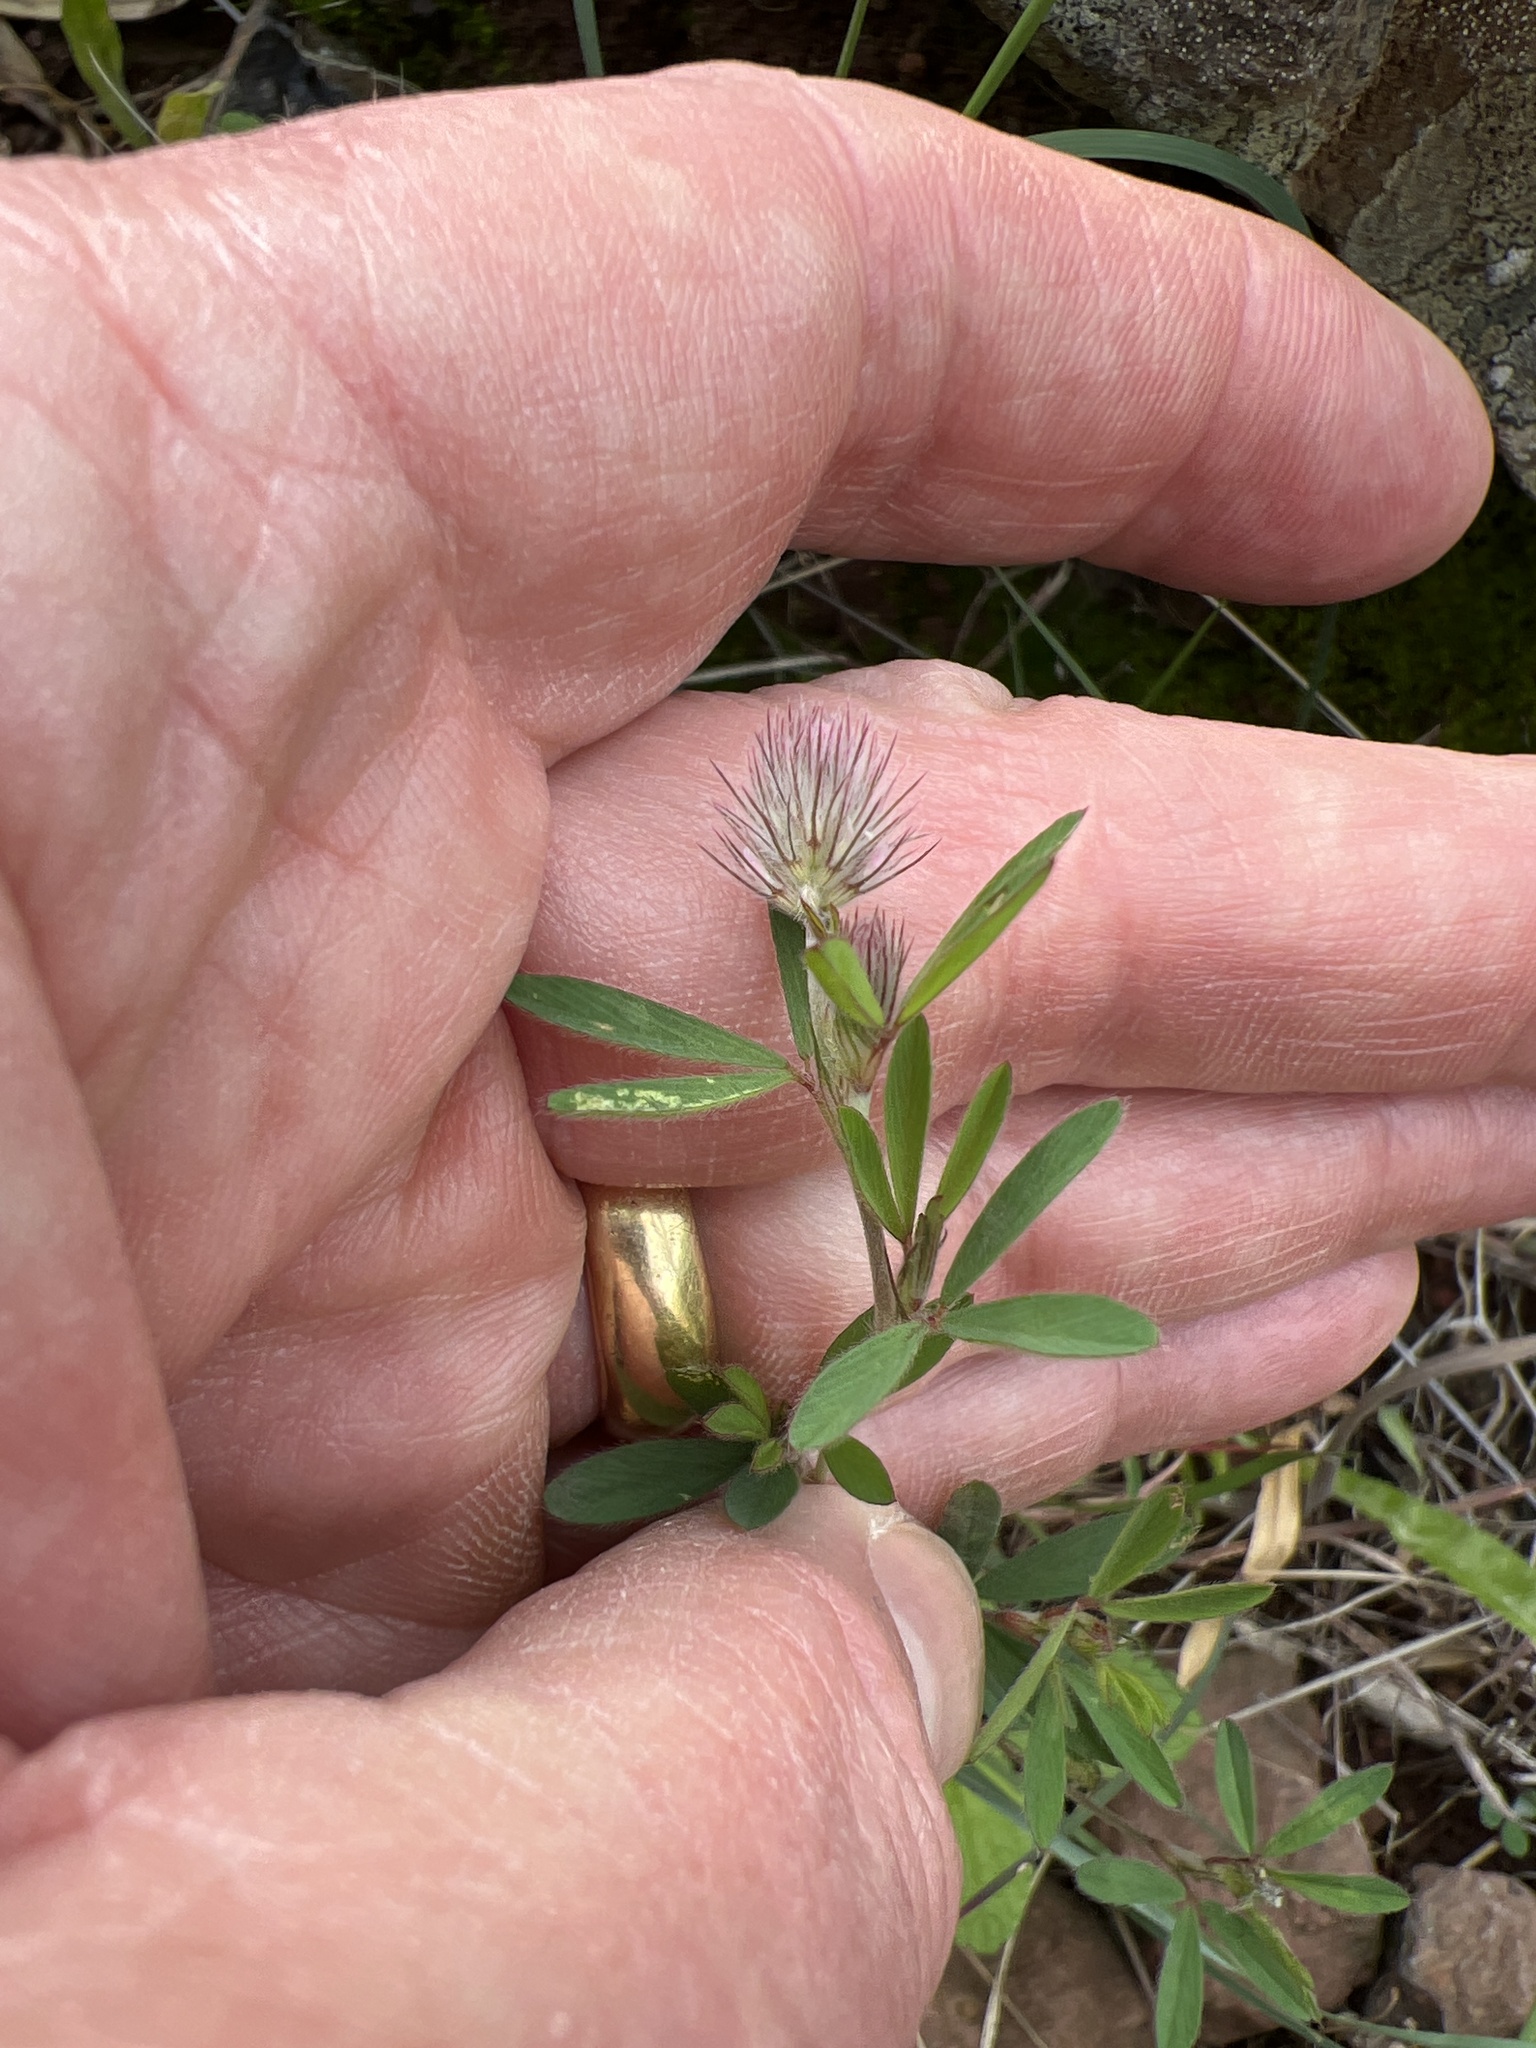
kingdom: Plantae
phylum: Tracheophyta
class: Magnoliopsida
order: Fabales
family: Fabaceae
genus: Trifolium
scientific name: Trifolium arvense
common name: Hare's-foot clover
